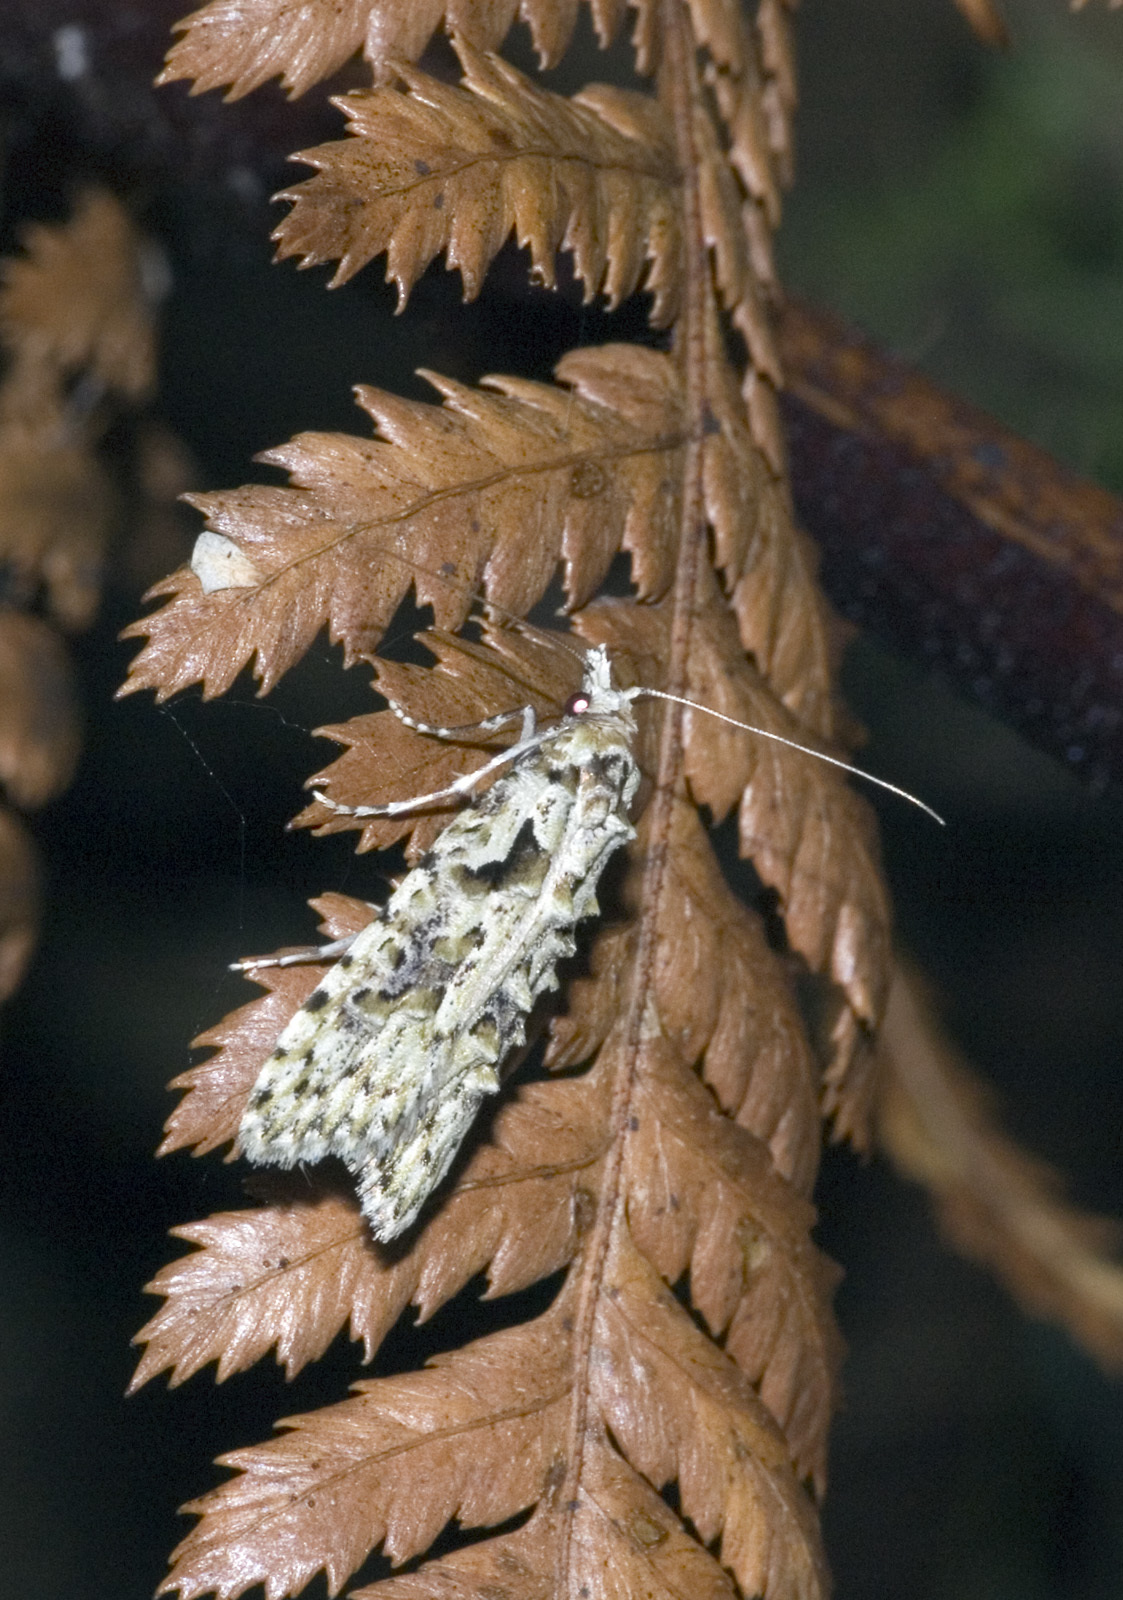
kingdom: Animalia
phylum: Arthropoda
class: Insecta
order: Lepidoptera
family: Carposinidae
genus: Carposina
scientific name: Carposina Heterocrossa eriphylla
